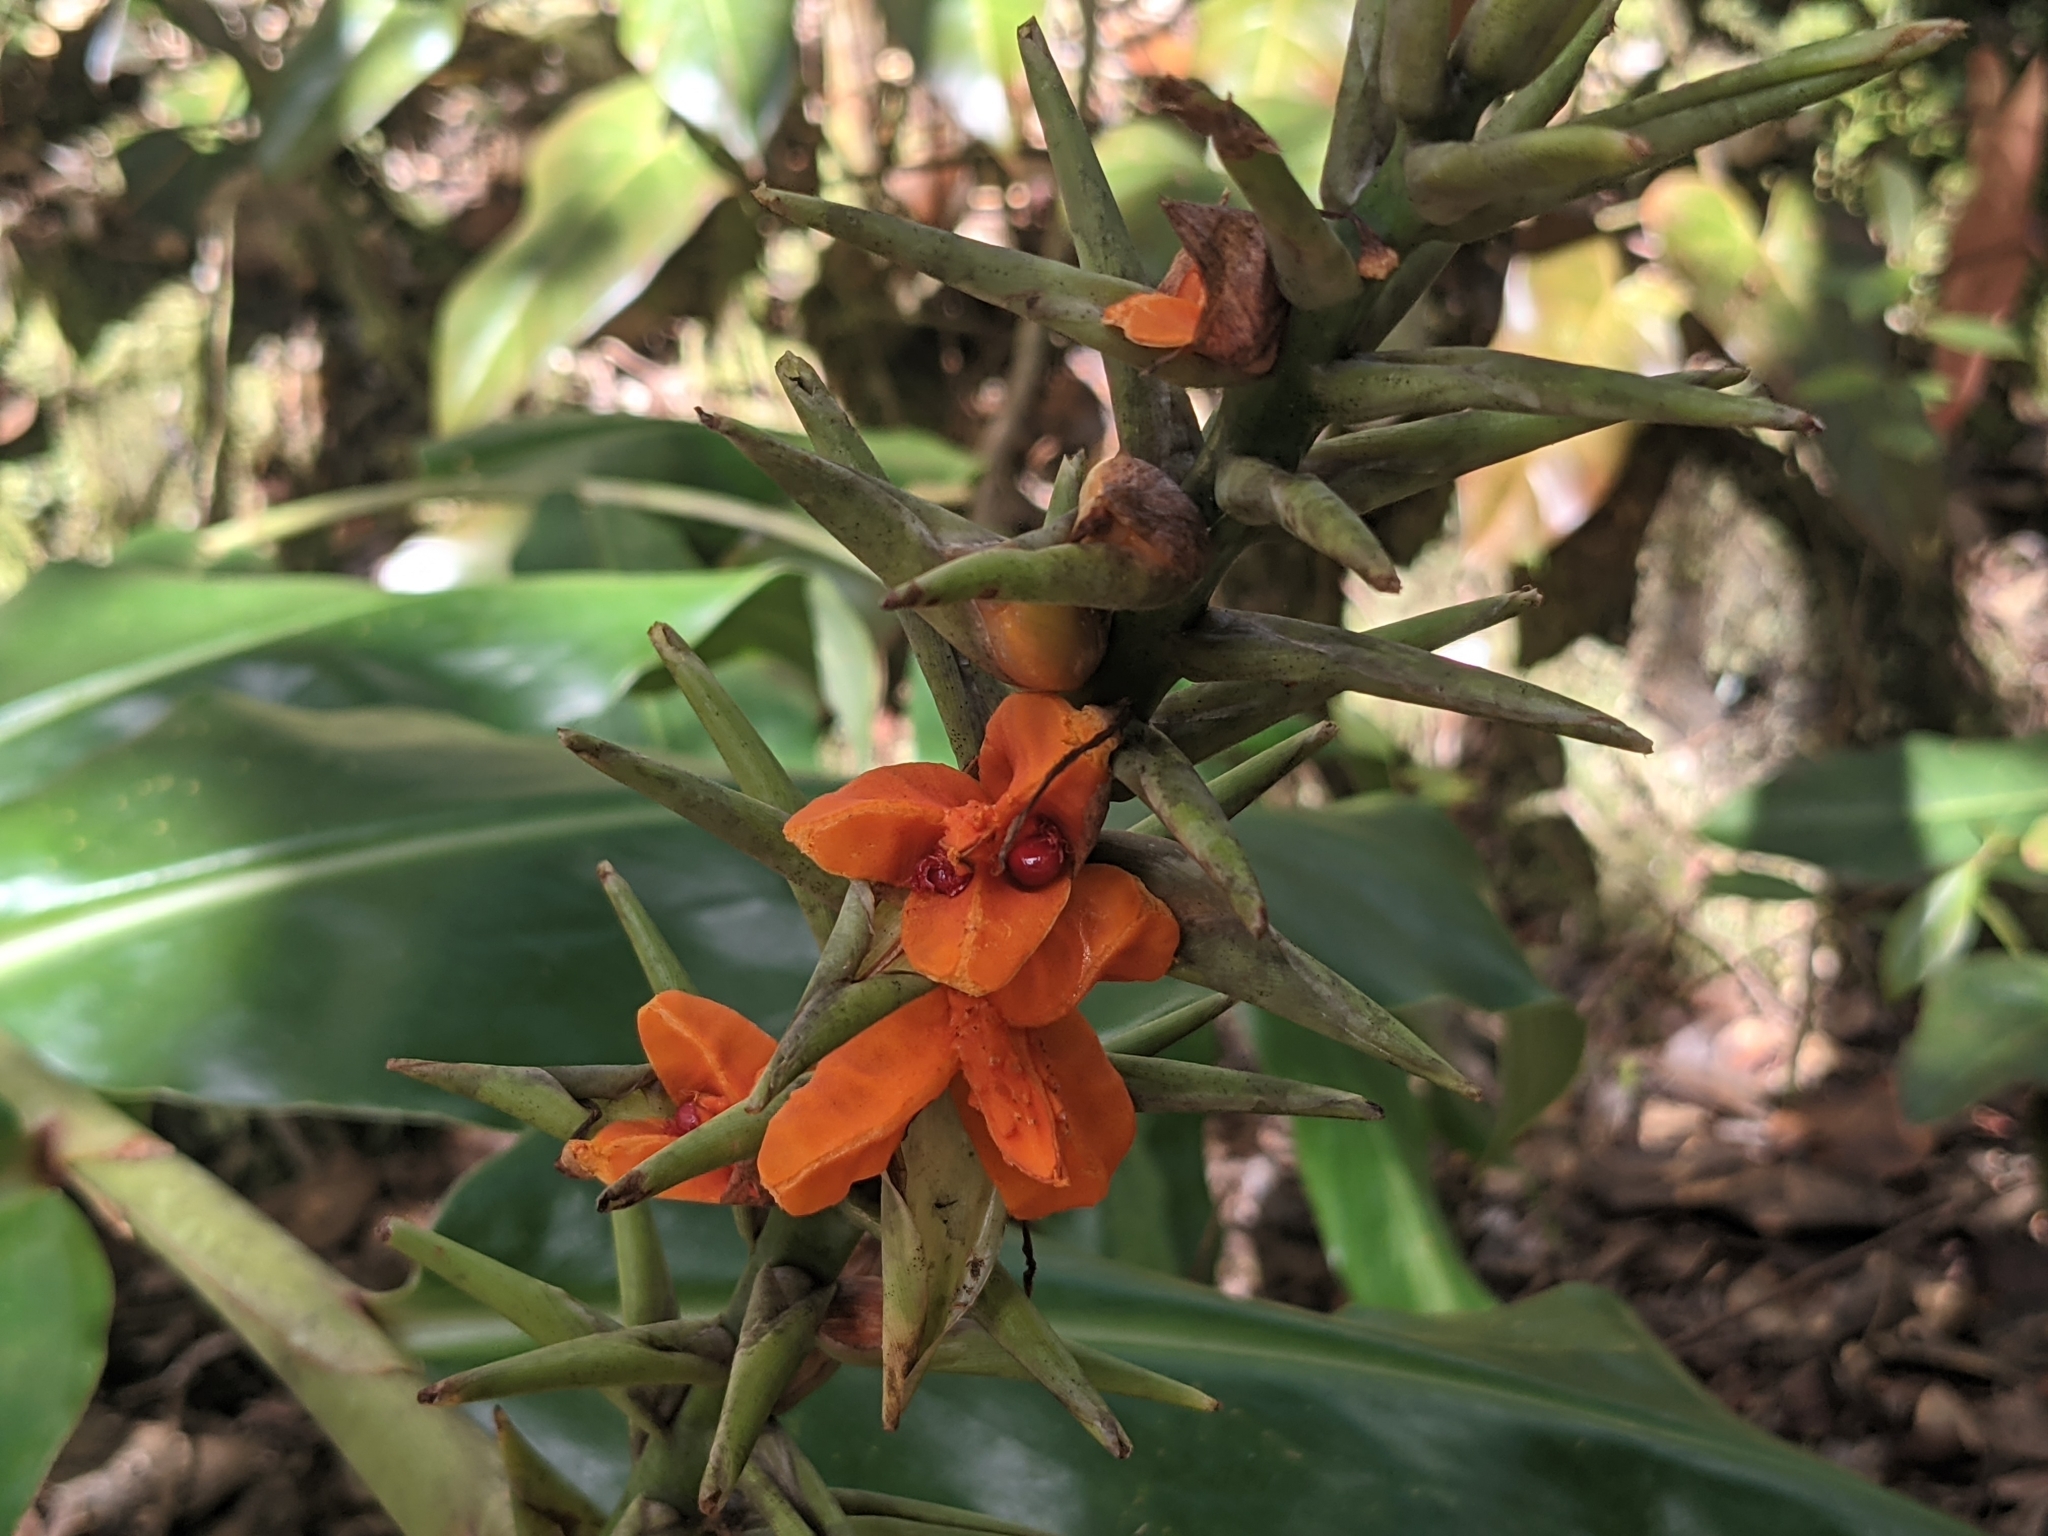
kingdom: Plantae
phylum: Tracheophyta
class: Liliopsida
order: Zingiberales
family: Zingiberaceae
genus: Hedychium
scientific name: Hedychium gardnerianum
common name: Himalayan ginger
